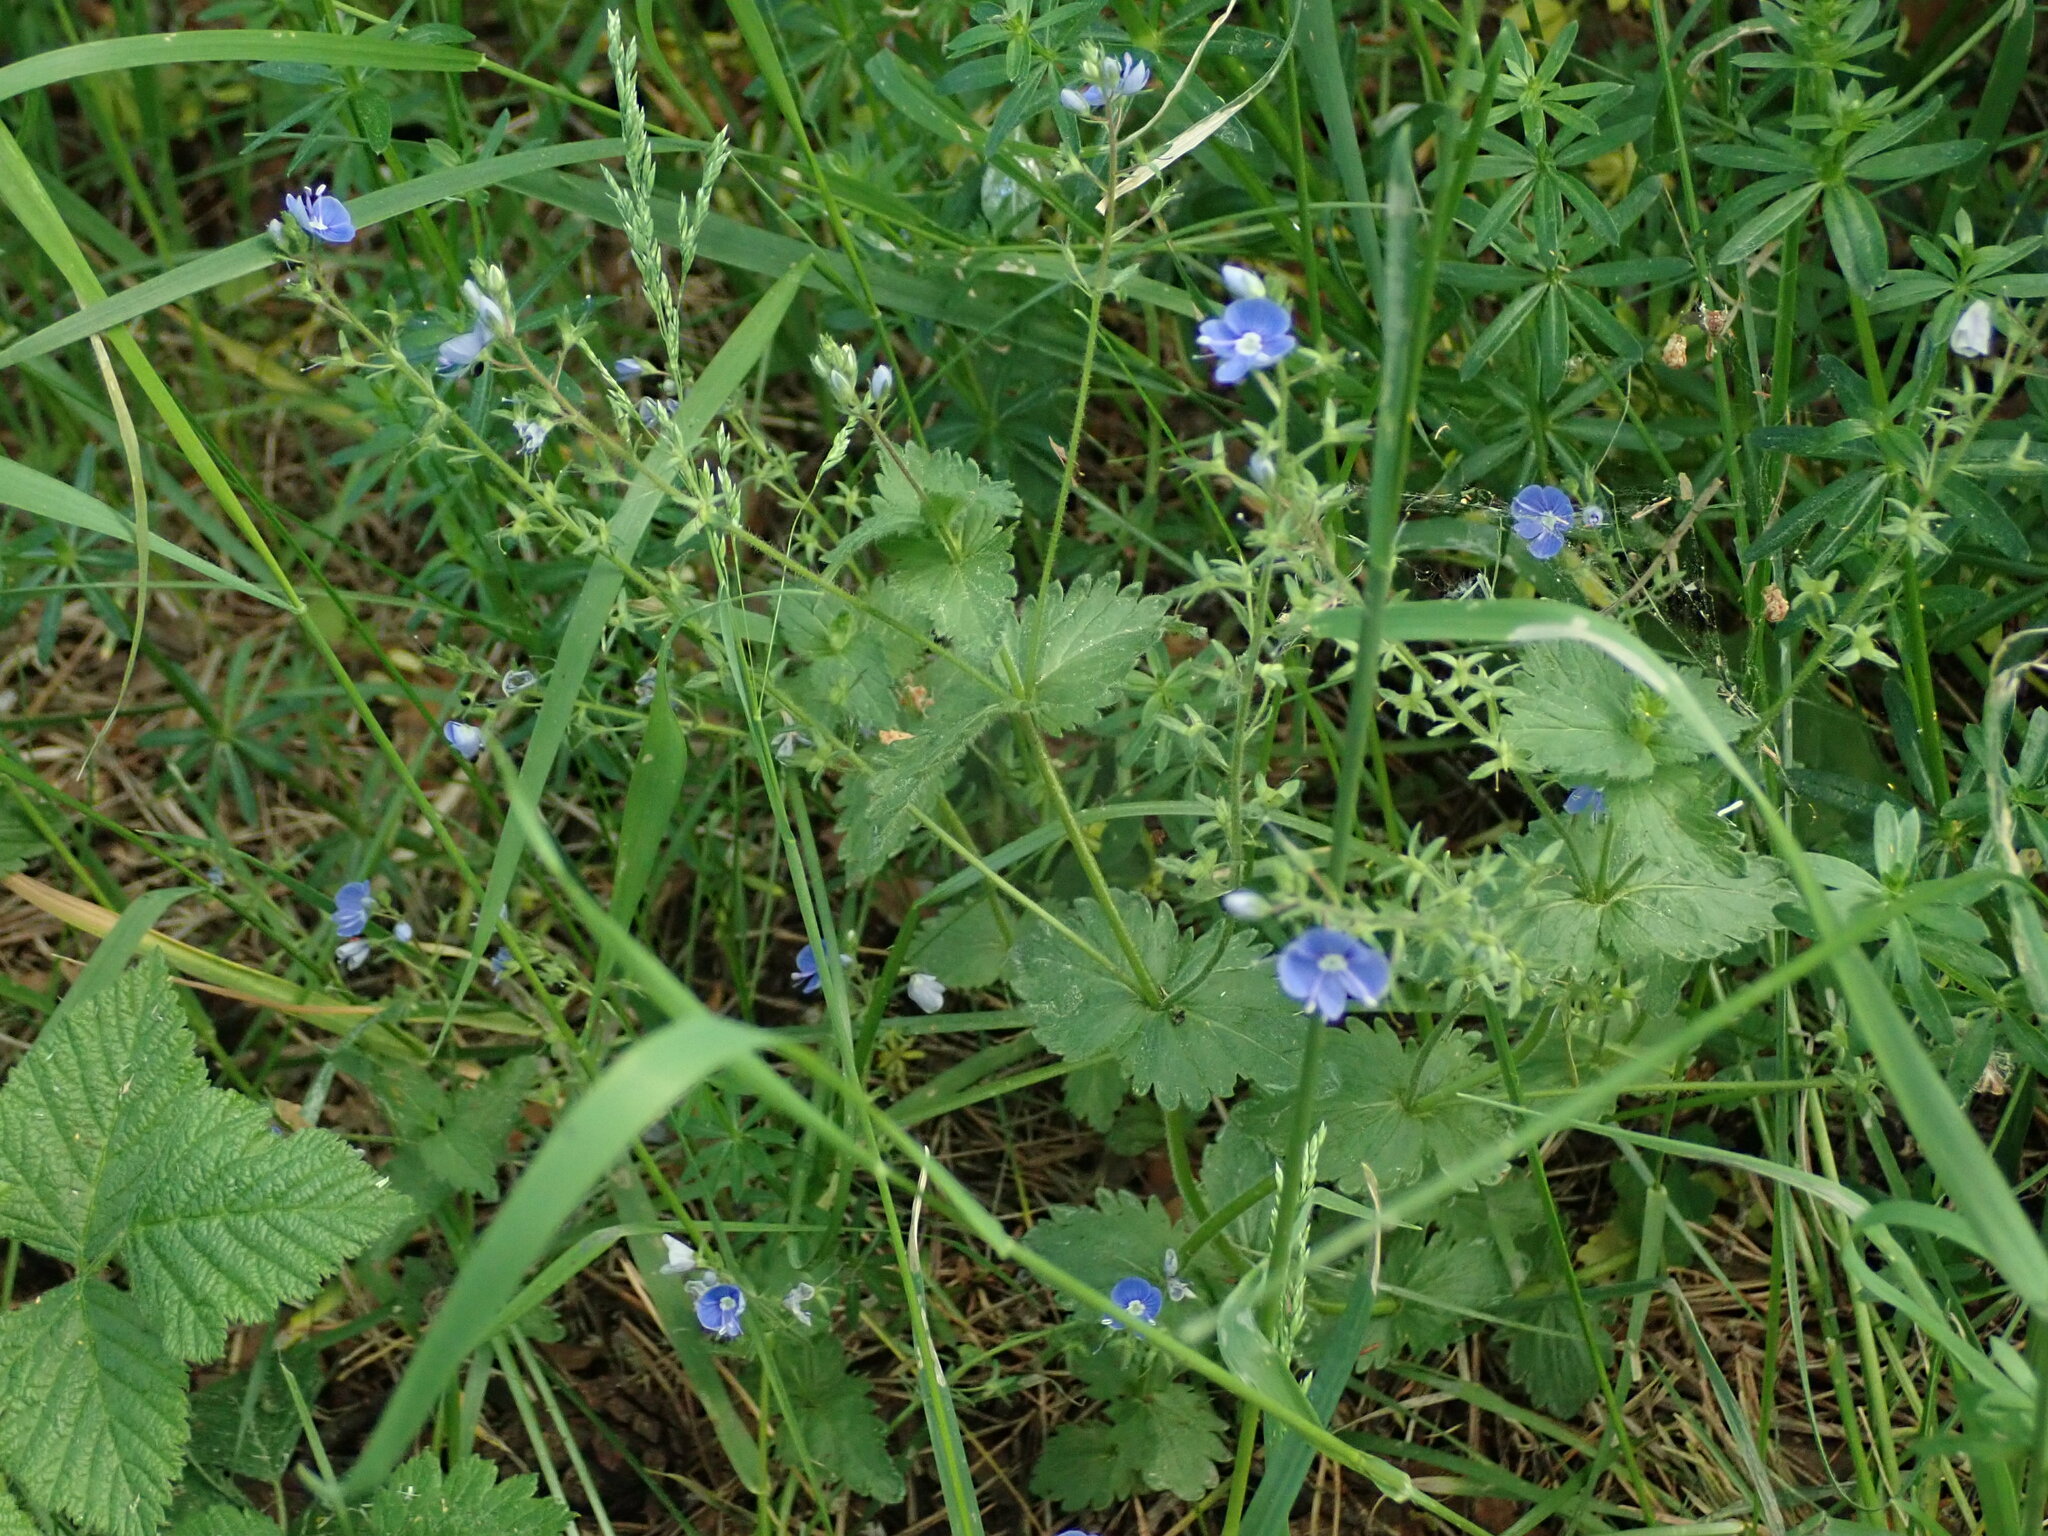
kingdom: Plantae
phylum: Tracheophyta
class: Magnoliopsida
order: Lamiales
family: Plantaginaceae
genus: Veronica
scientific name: Veronica chamaedrys
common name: Germander speedwell
